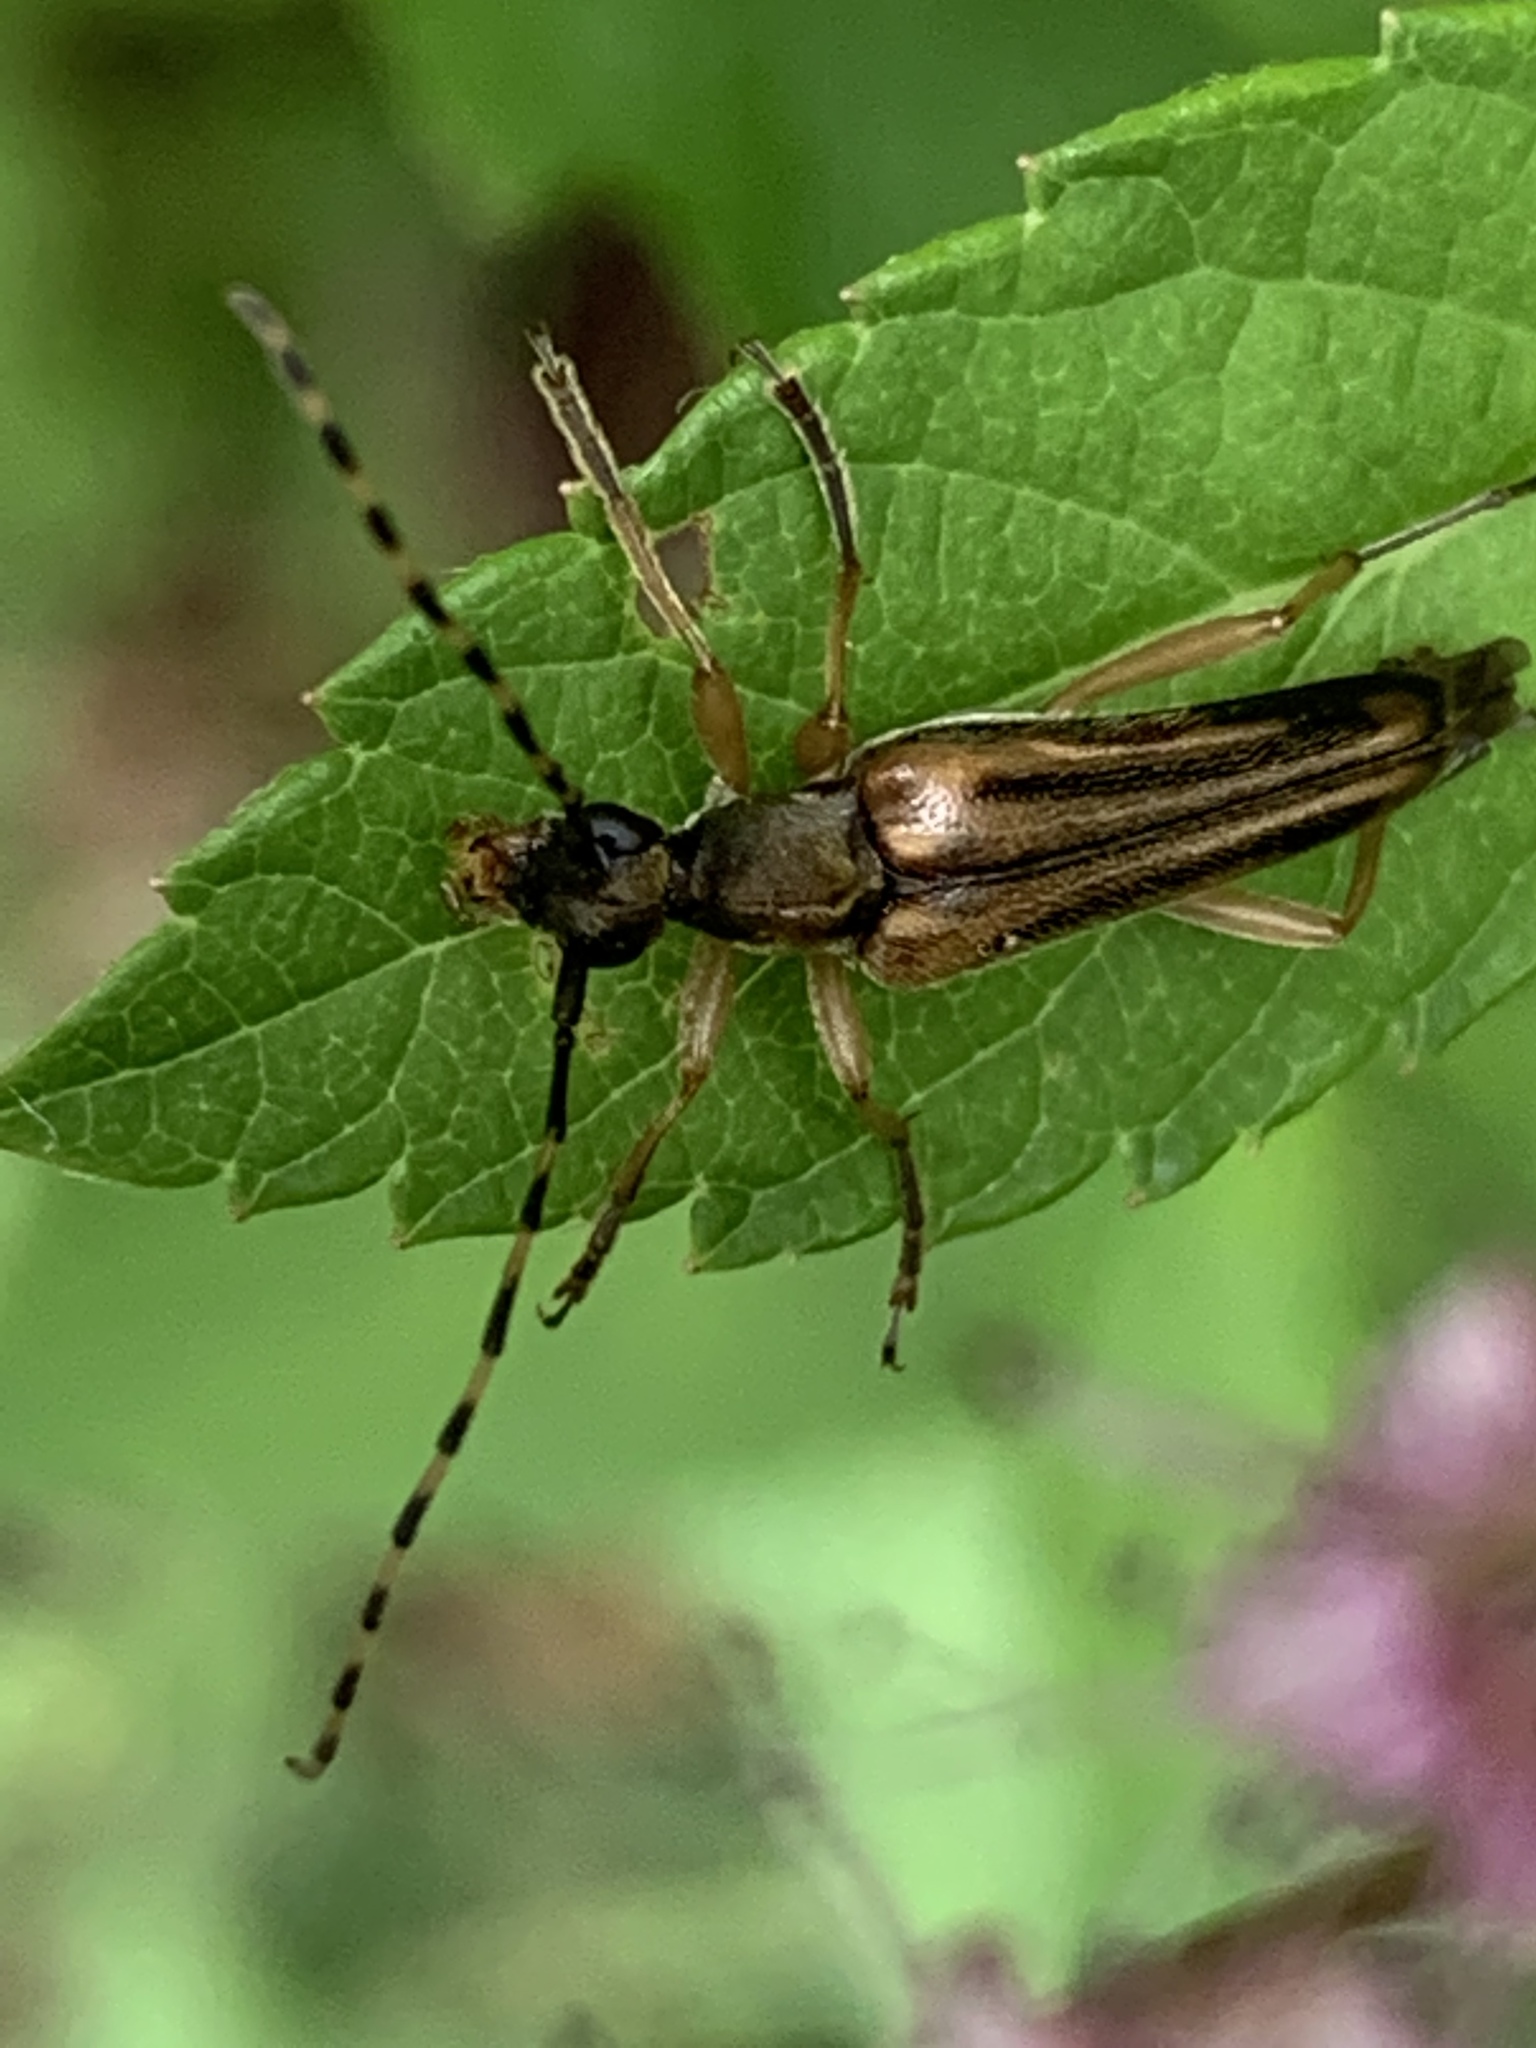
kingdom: Animalia
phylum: Arthropoda
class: Insecta
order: Coleoptera
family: Cerambycidae
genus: Analeptura
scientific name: Analeptura lineola
